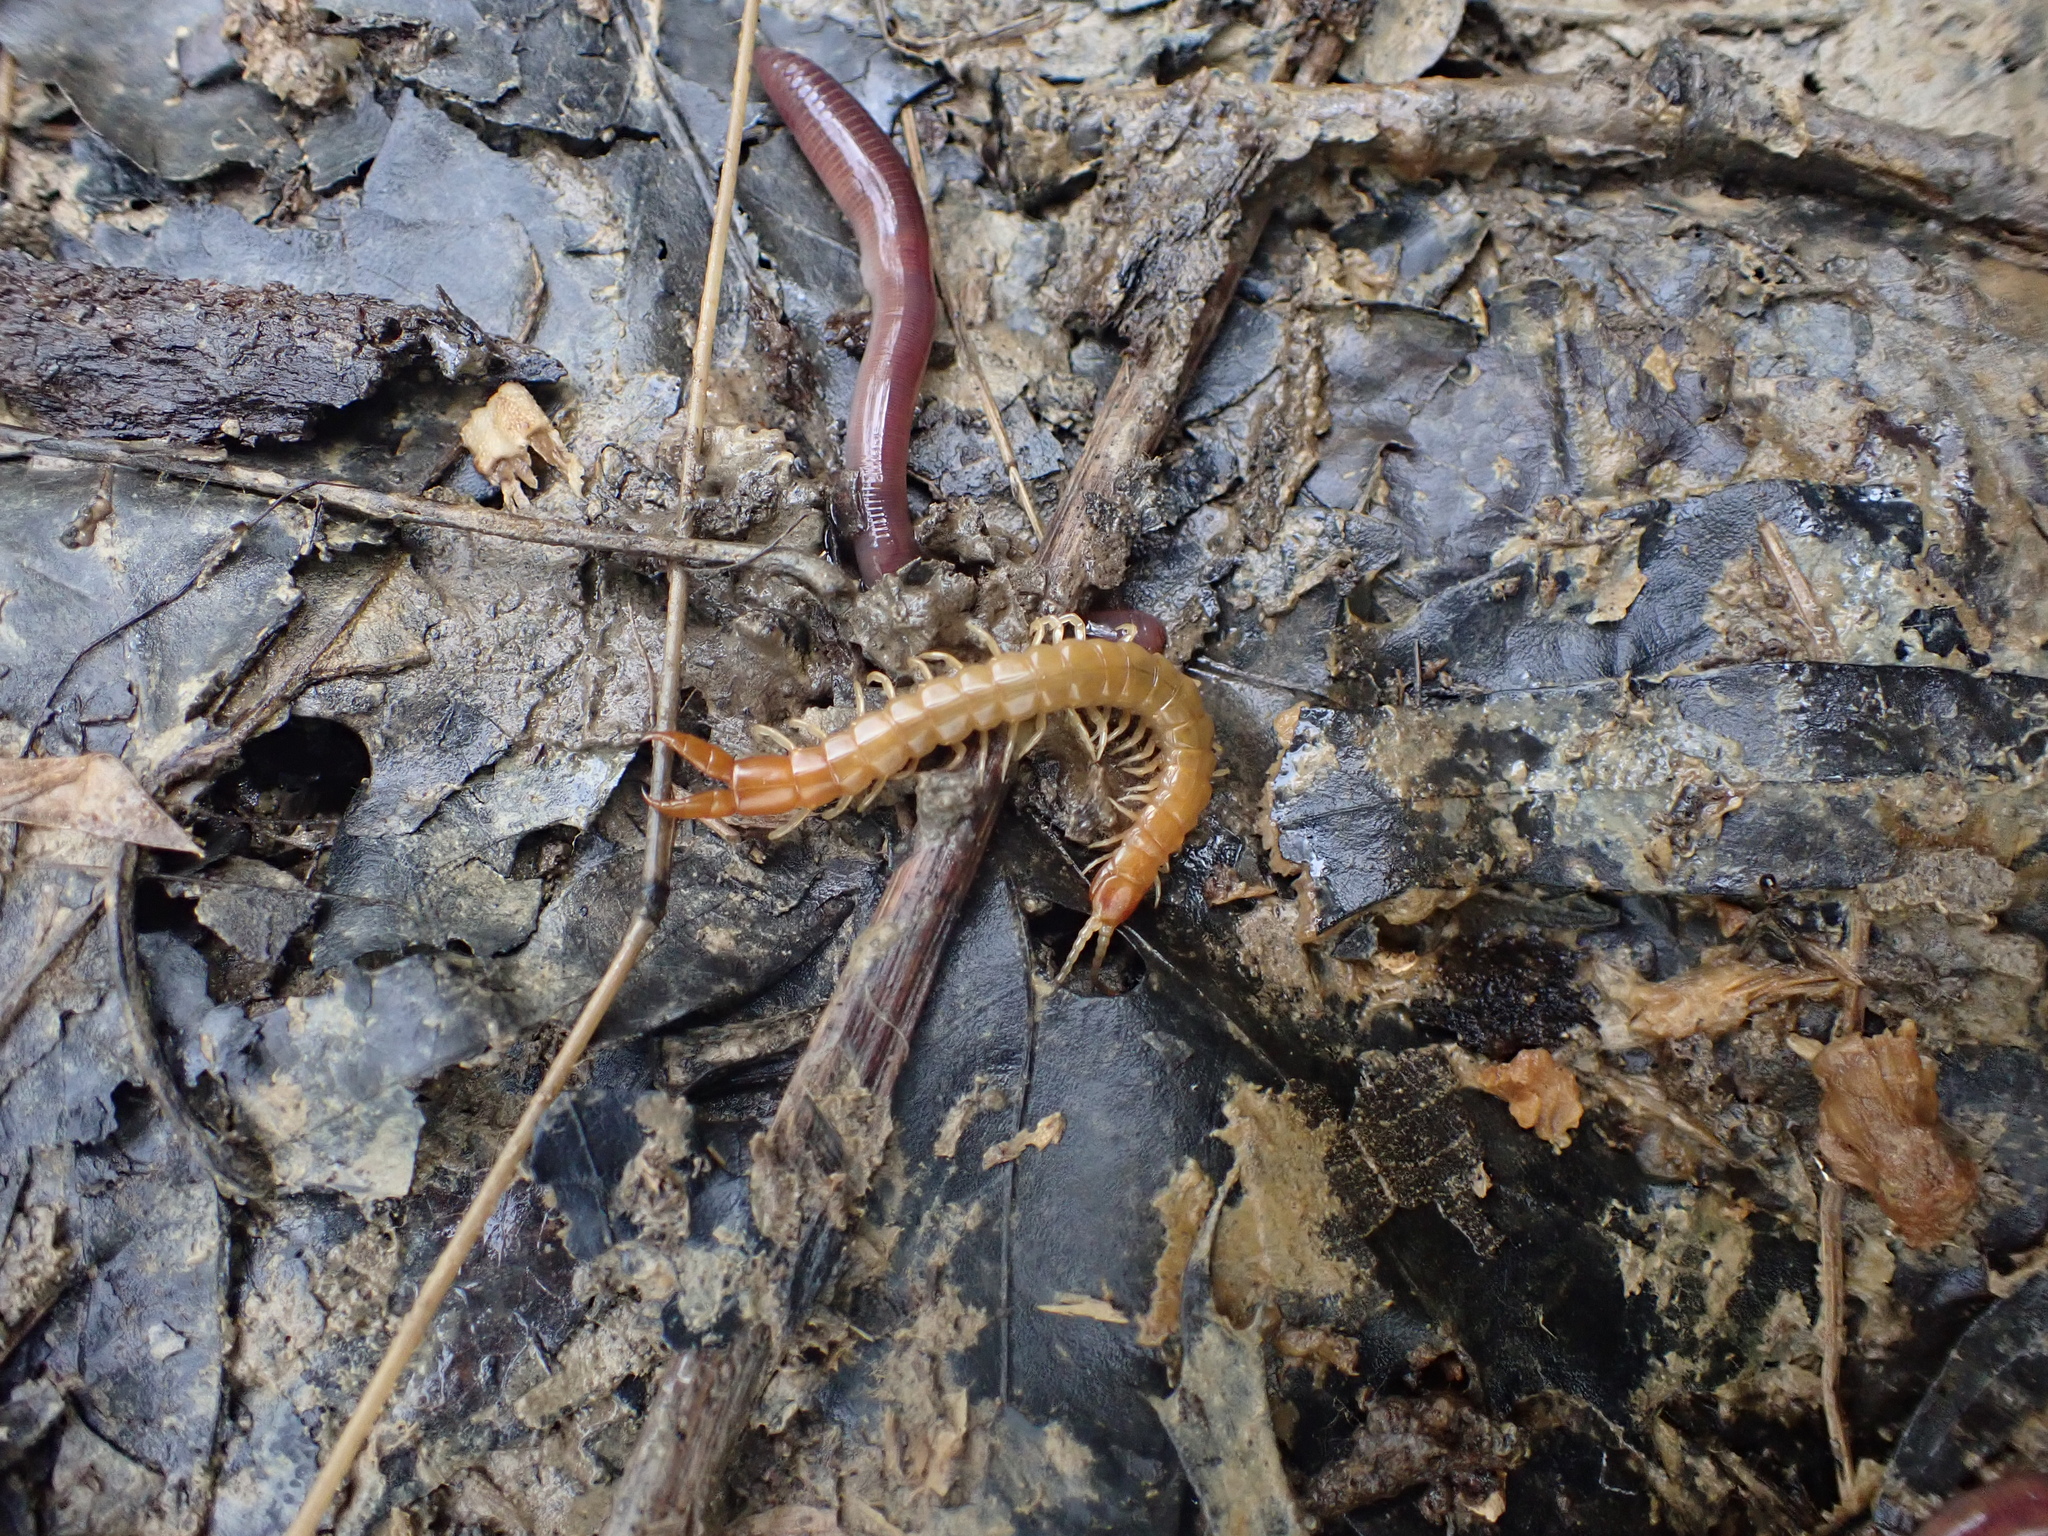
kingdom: Animalia
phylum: Arthropoda
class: Chilopoda
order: Scolopendromorpha
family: Cryptopidae
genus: Theatops
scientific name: Theatops posticus
